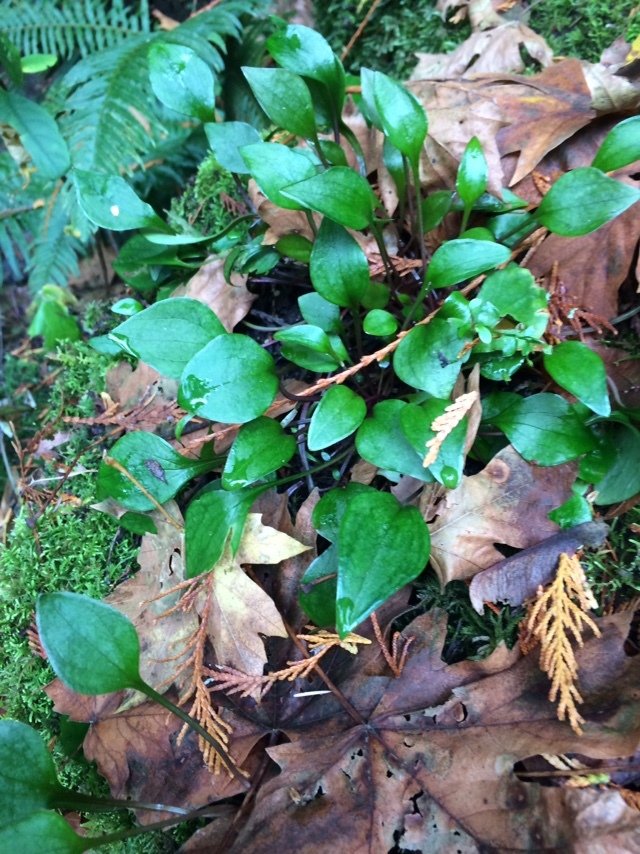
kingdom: Plantae
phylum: Tracheophyta
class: Magnoliopsida
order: Caryophyllales
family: Montiaceae
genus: Claytonia
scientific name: Claytonia sibirica
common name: Pink purslane
